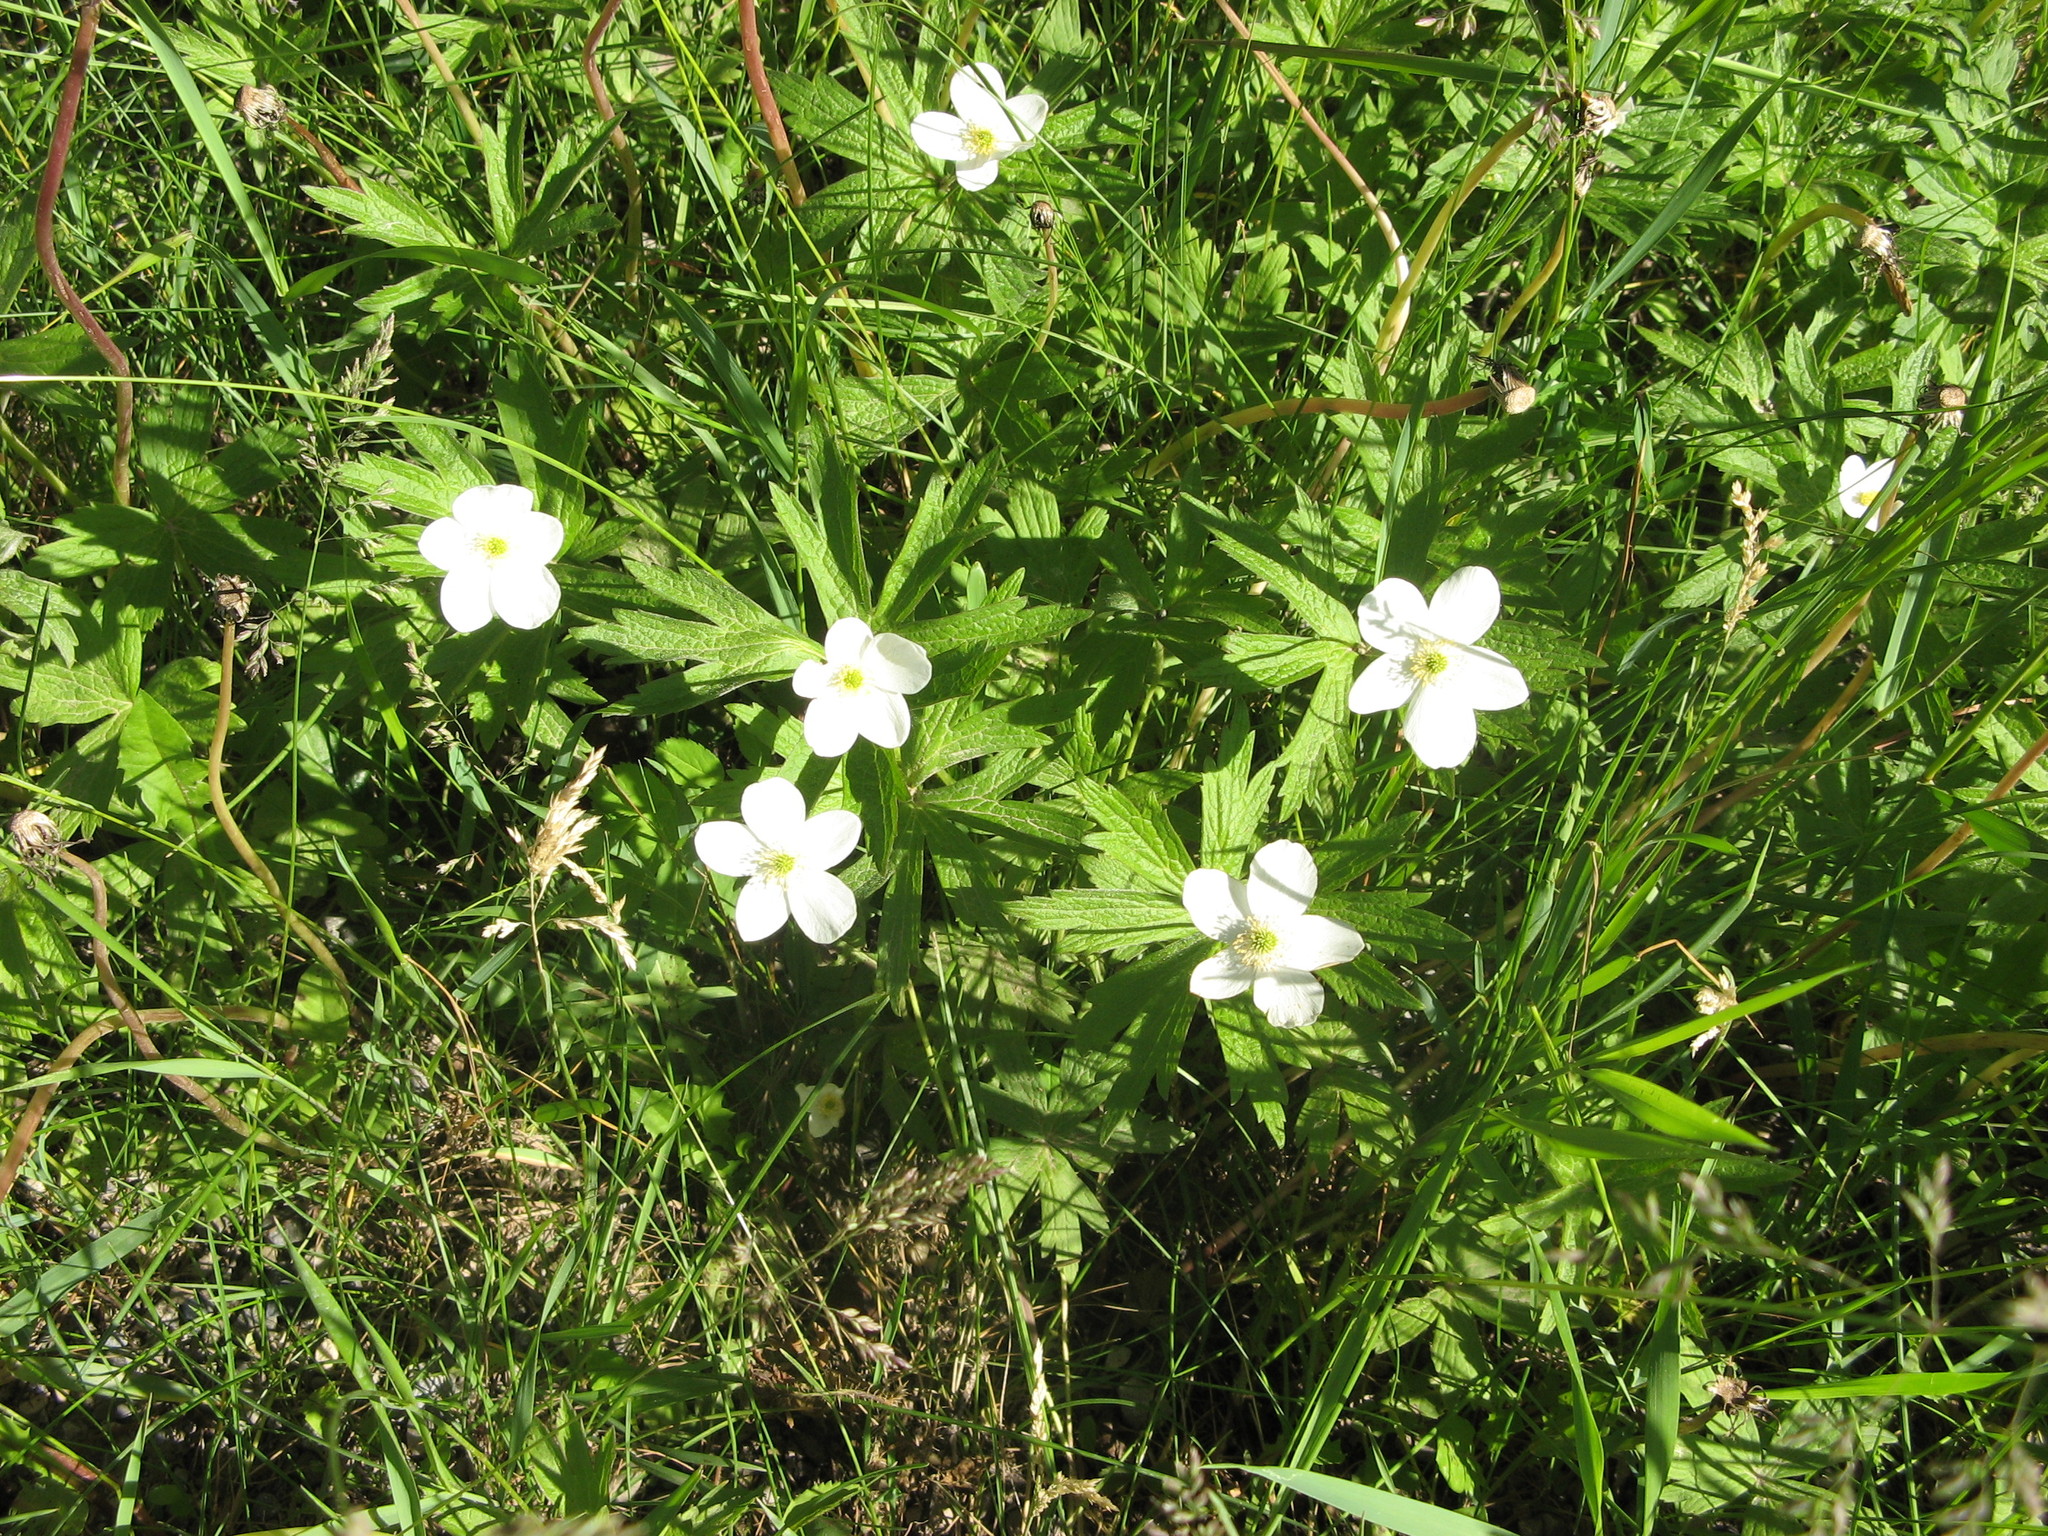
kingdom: Plantae
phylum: Tracheophyta
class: Magnoliopsida
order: Ranunculales
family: Ranunculaceae
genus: Anemonastrum
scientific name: Anemonastrum canadense
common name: Canada anemone
